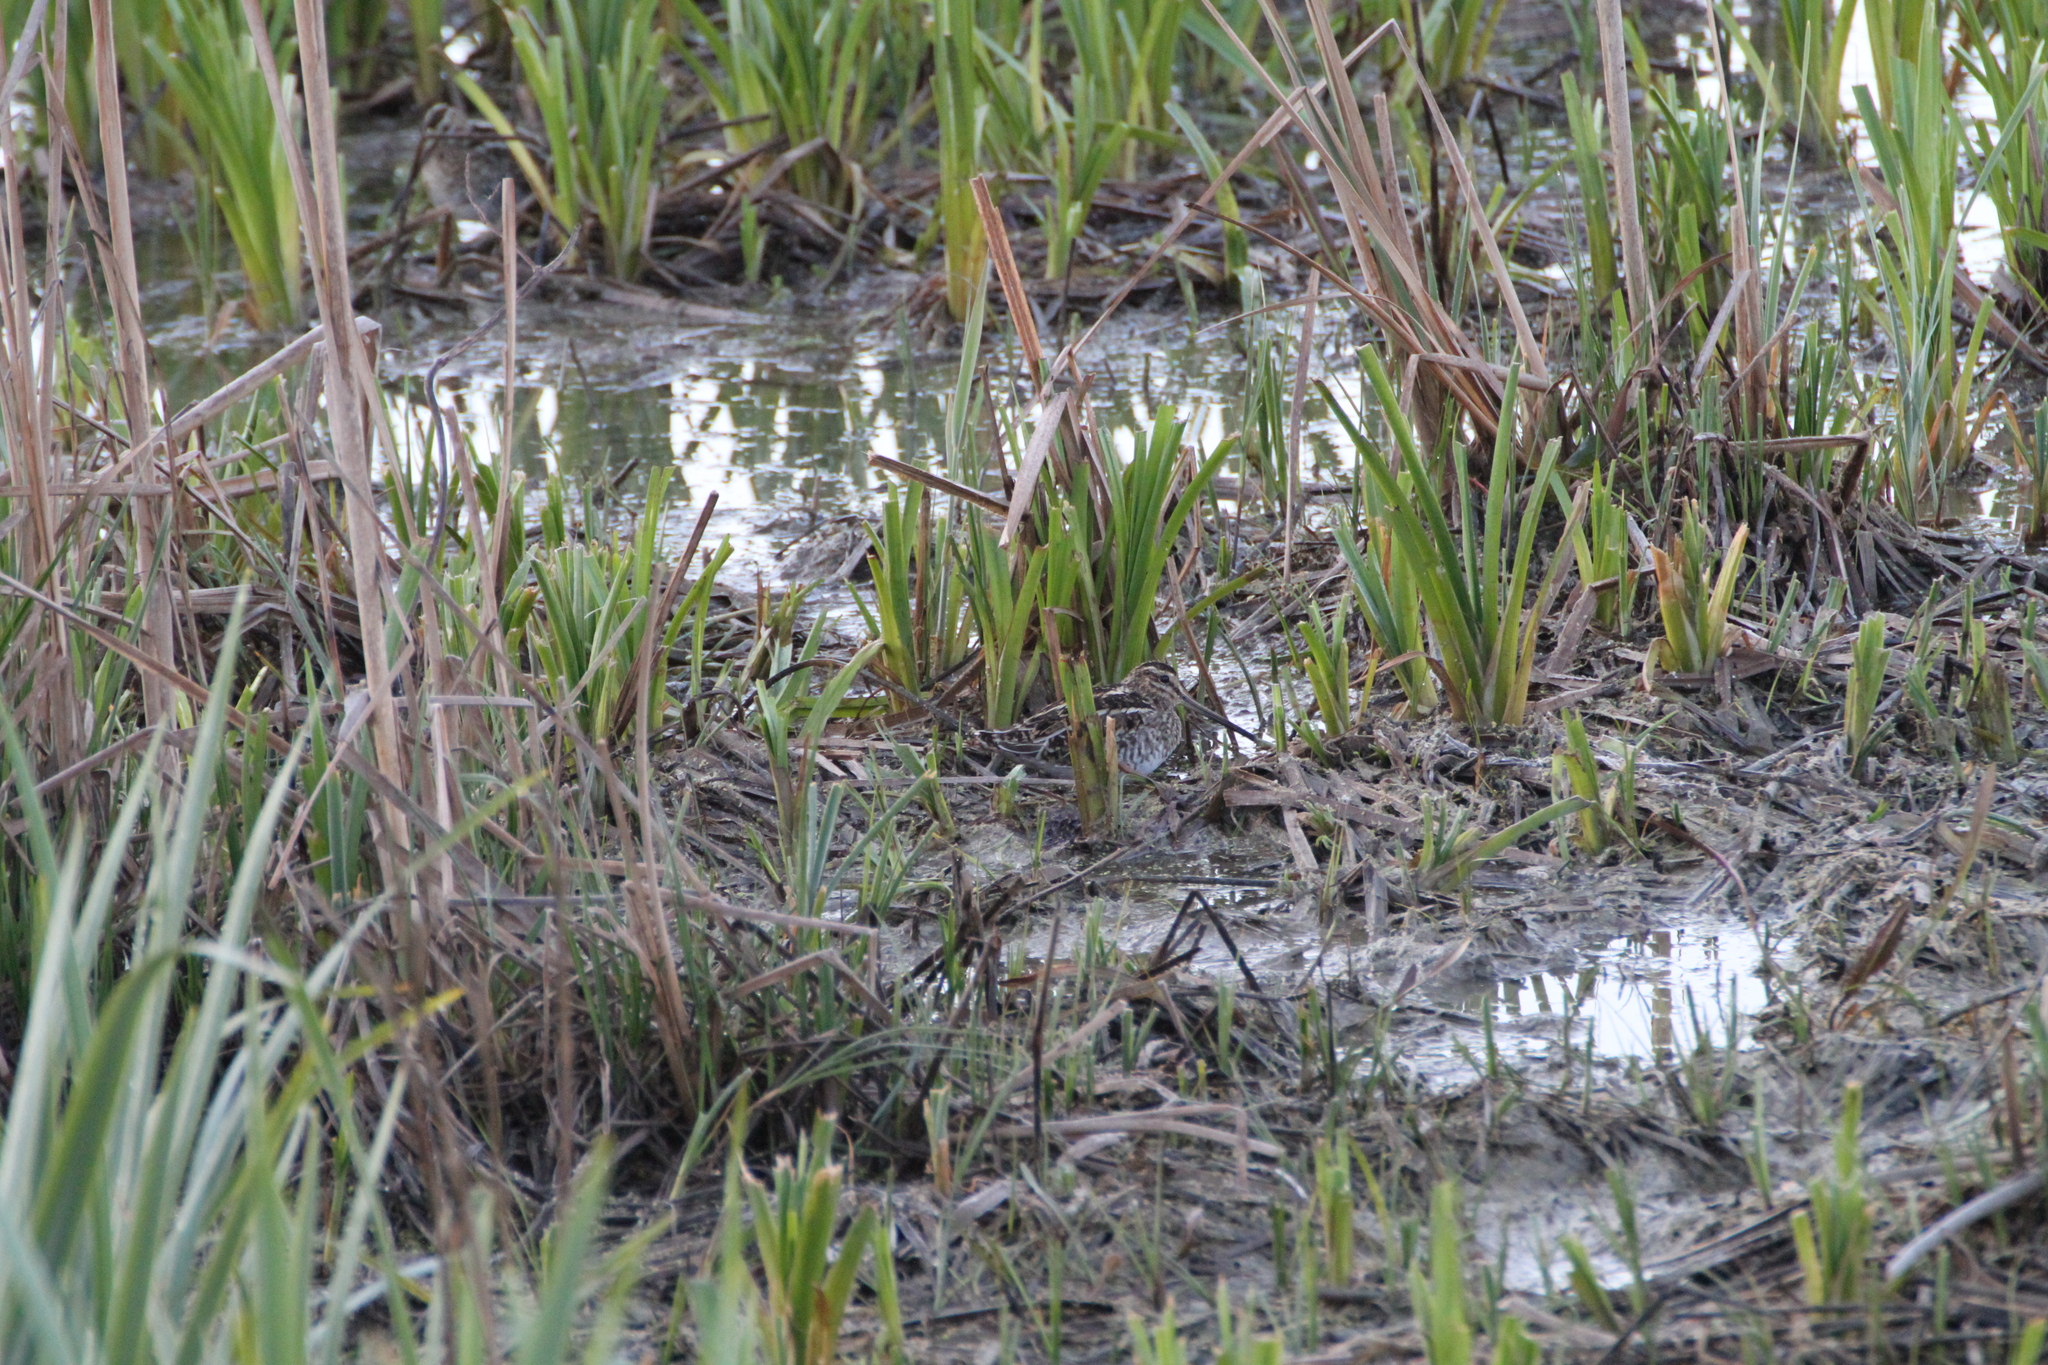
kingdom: Animalia
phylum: Chordata
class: Aves
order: Charadriiformes
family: Scolopacidae
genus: Gallinago
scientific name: Gallinago gallinago
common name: Common snipe
